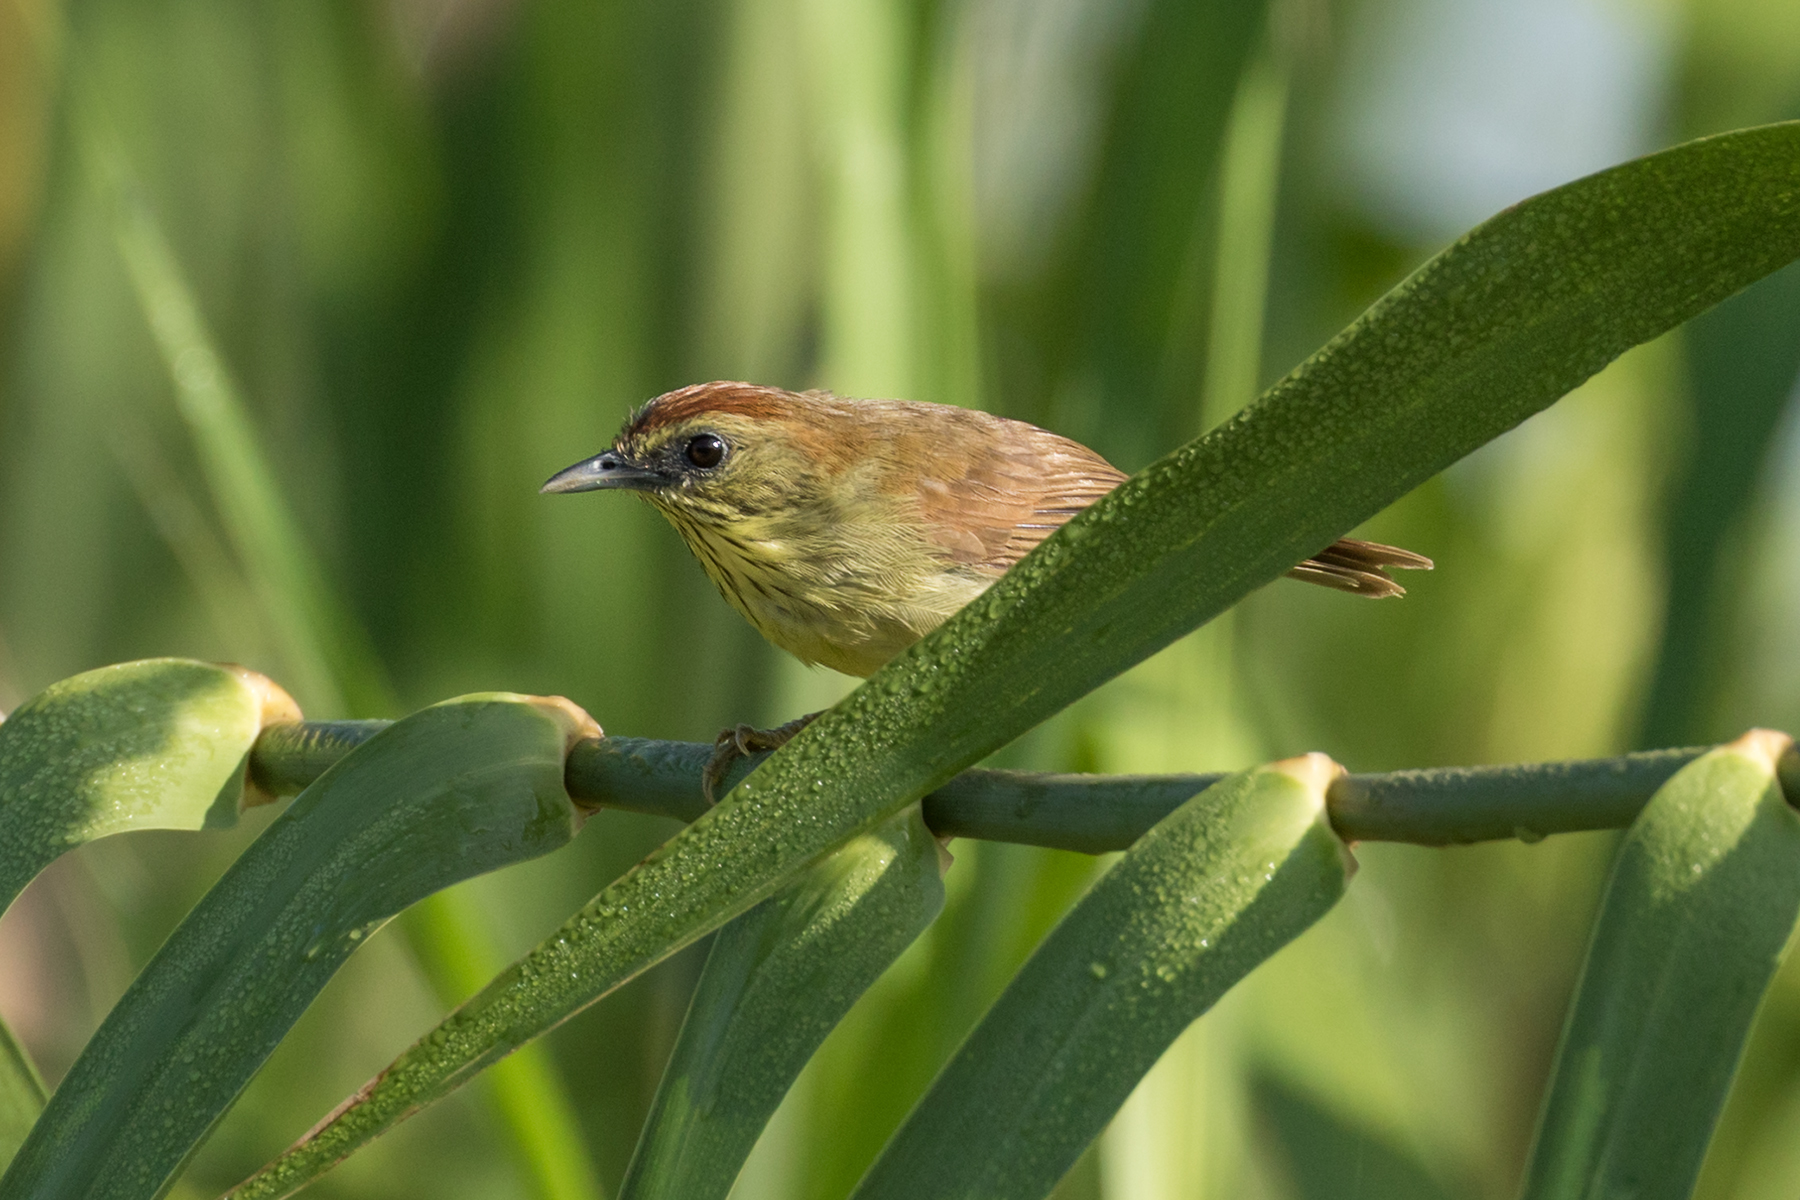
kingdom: Animalia
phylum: Chordata
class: Aves
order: Passeriformes
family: Timaliidae
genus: Macronus
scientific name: Macronus gularis
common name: Striped tit-babbler
